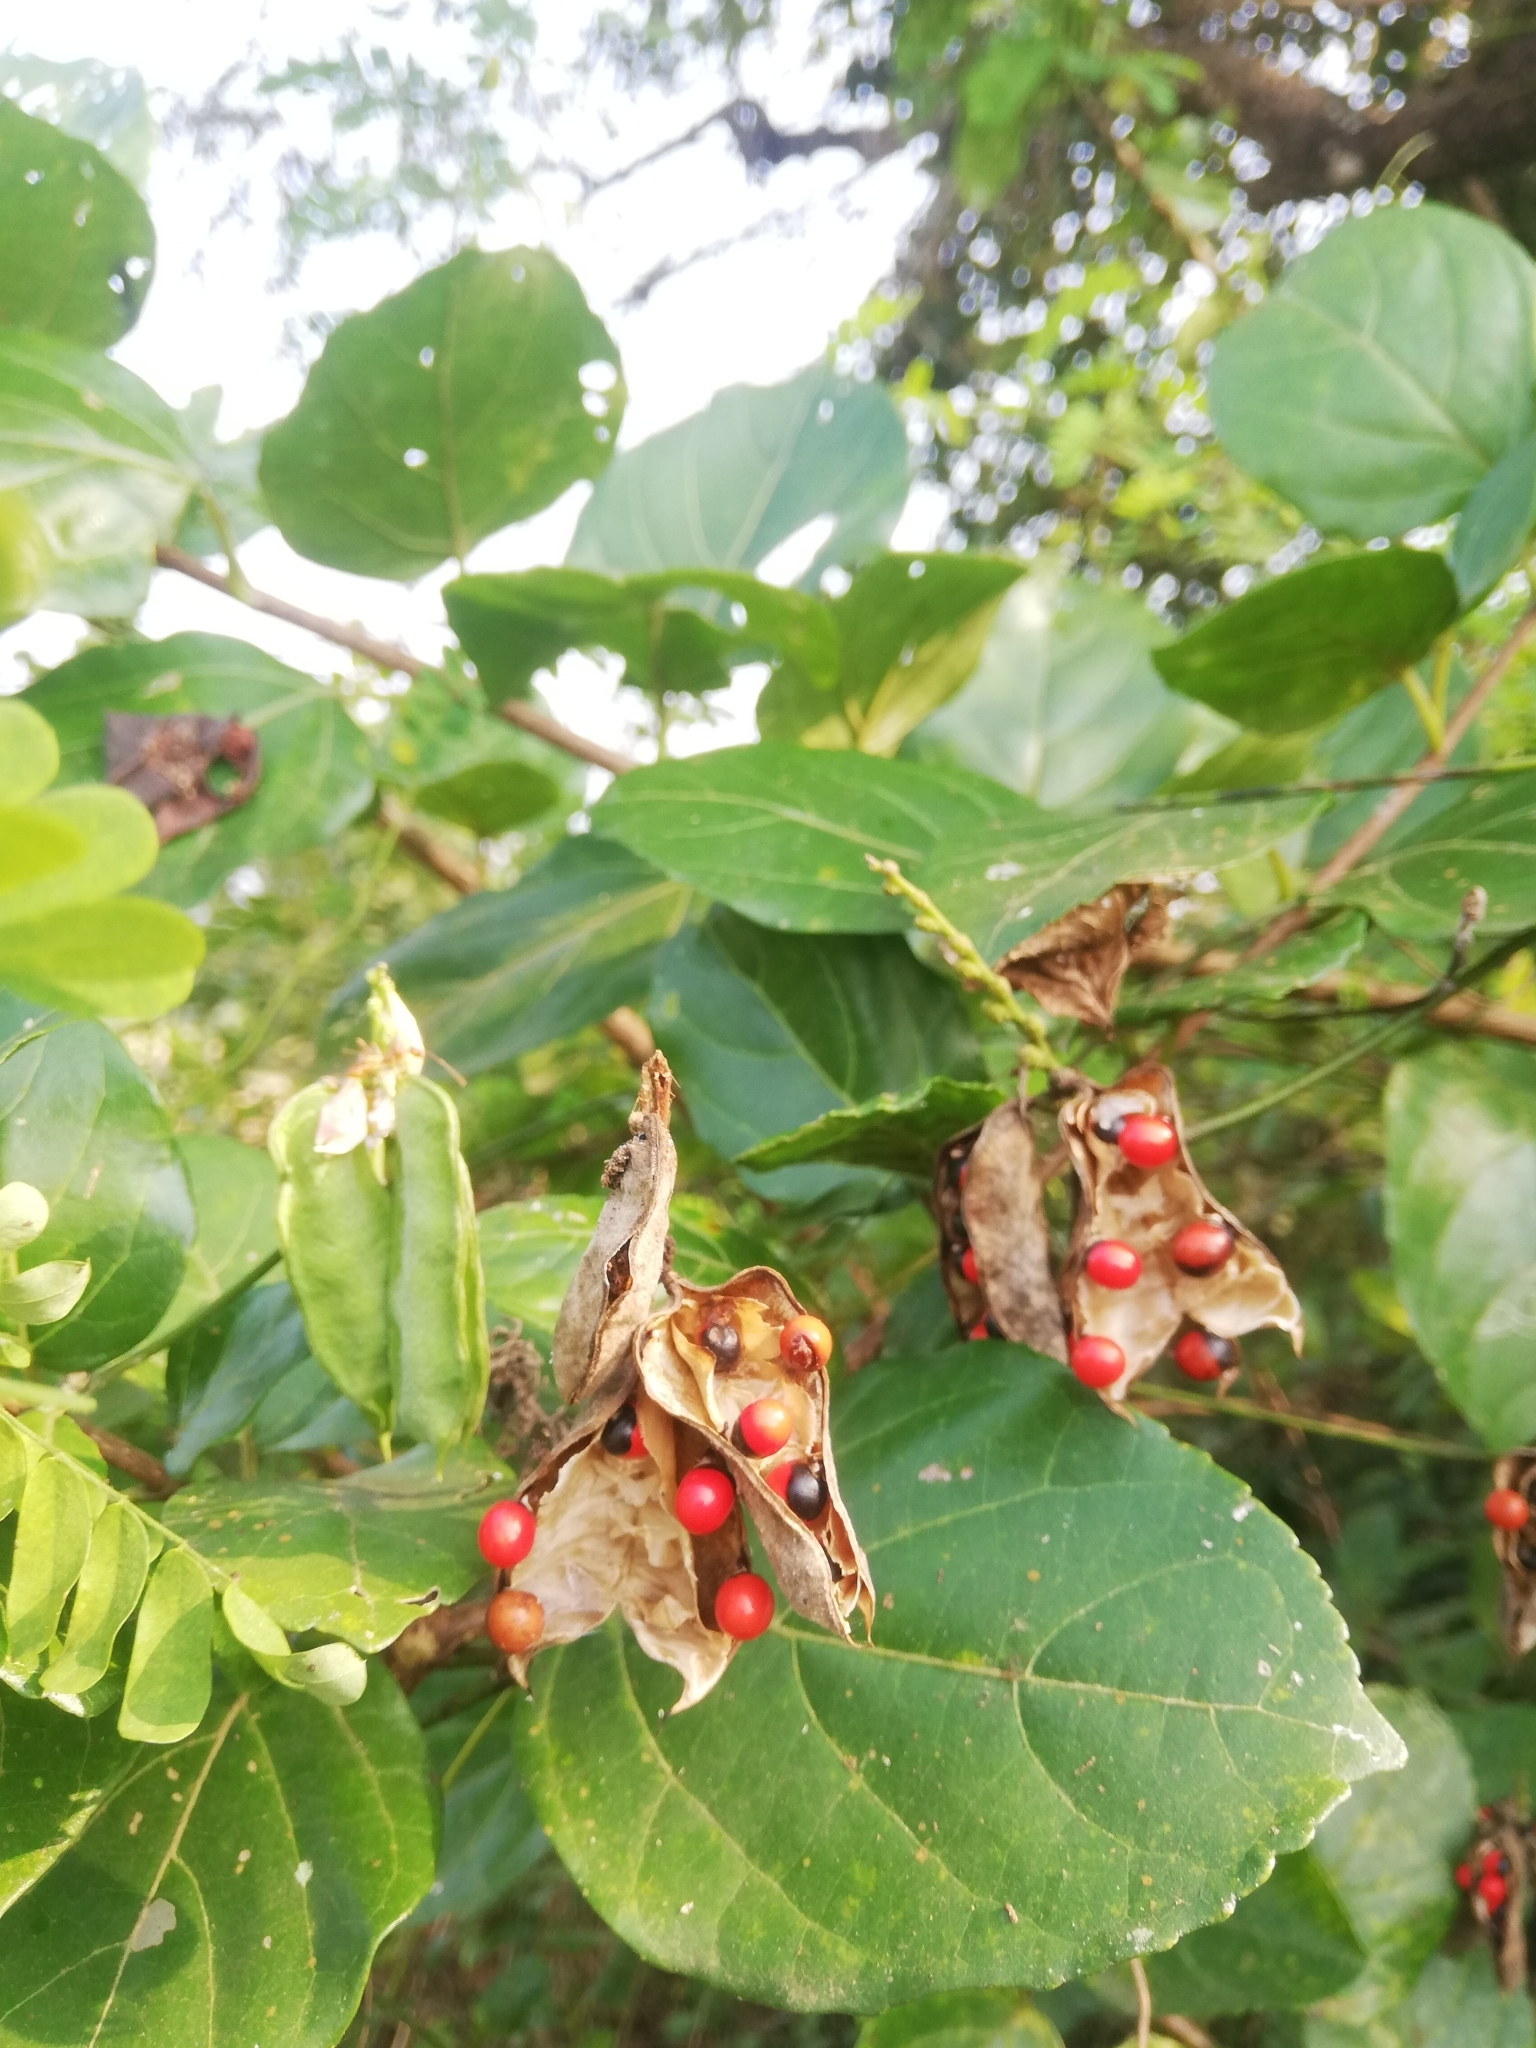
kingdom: Plantae
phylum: Tracheophyta
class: Magnoliopsida
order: Fabales
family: Fabaceae
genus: Abrus
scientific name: Abrus precatorius
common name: Rosarypea
